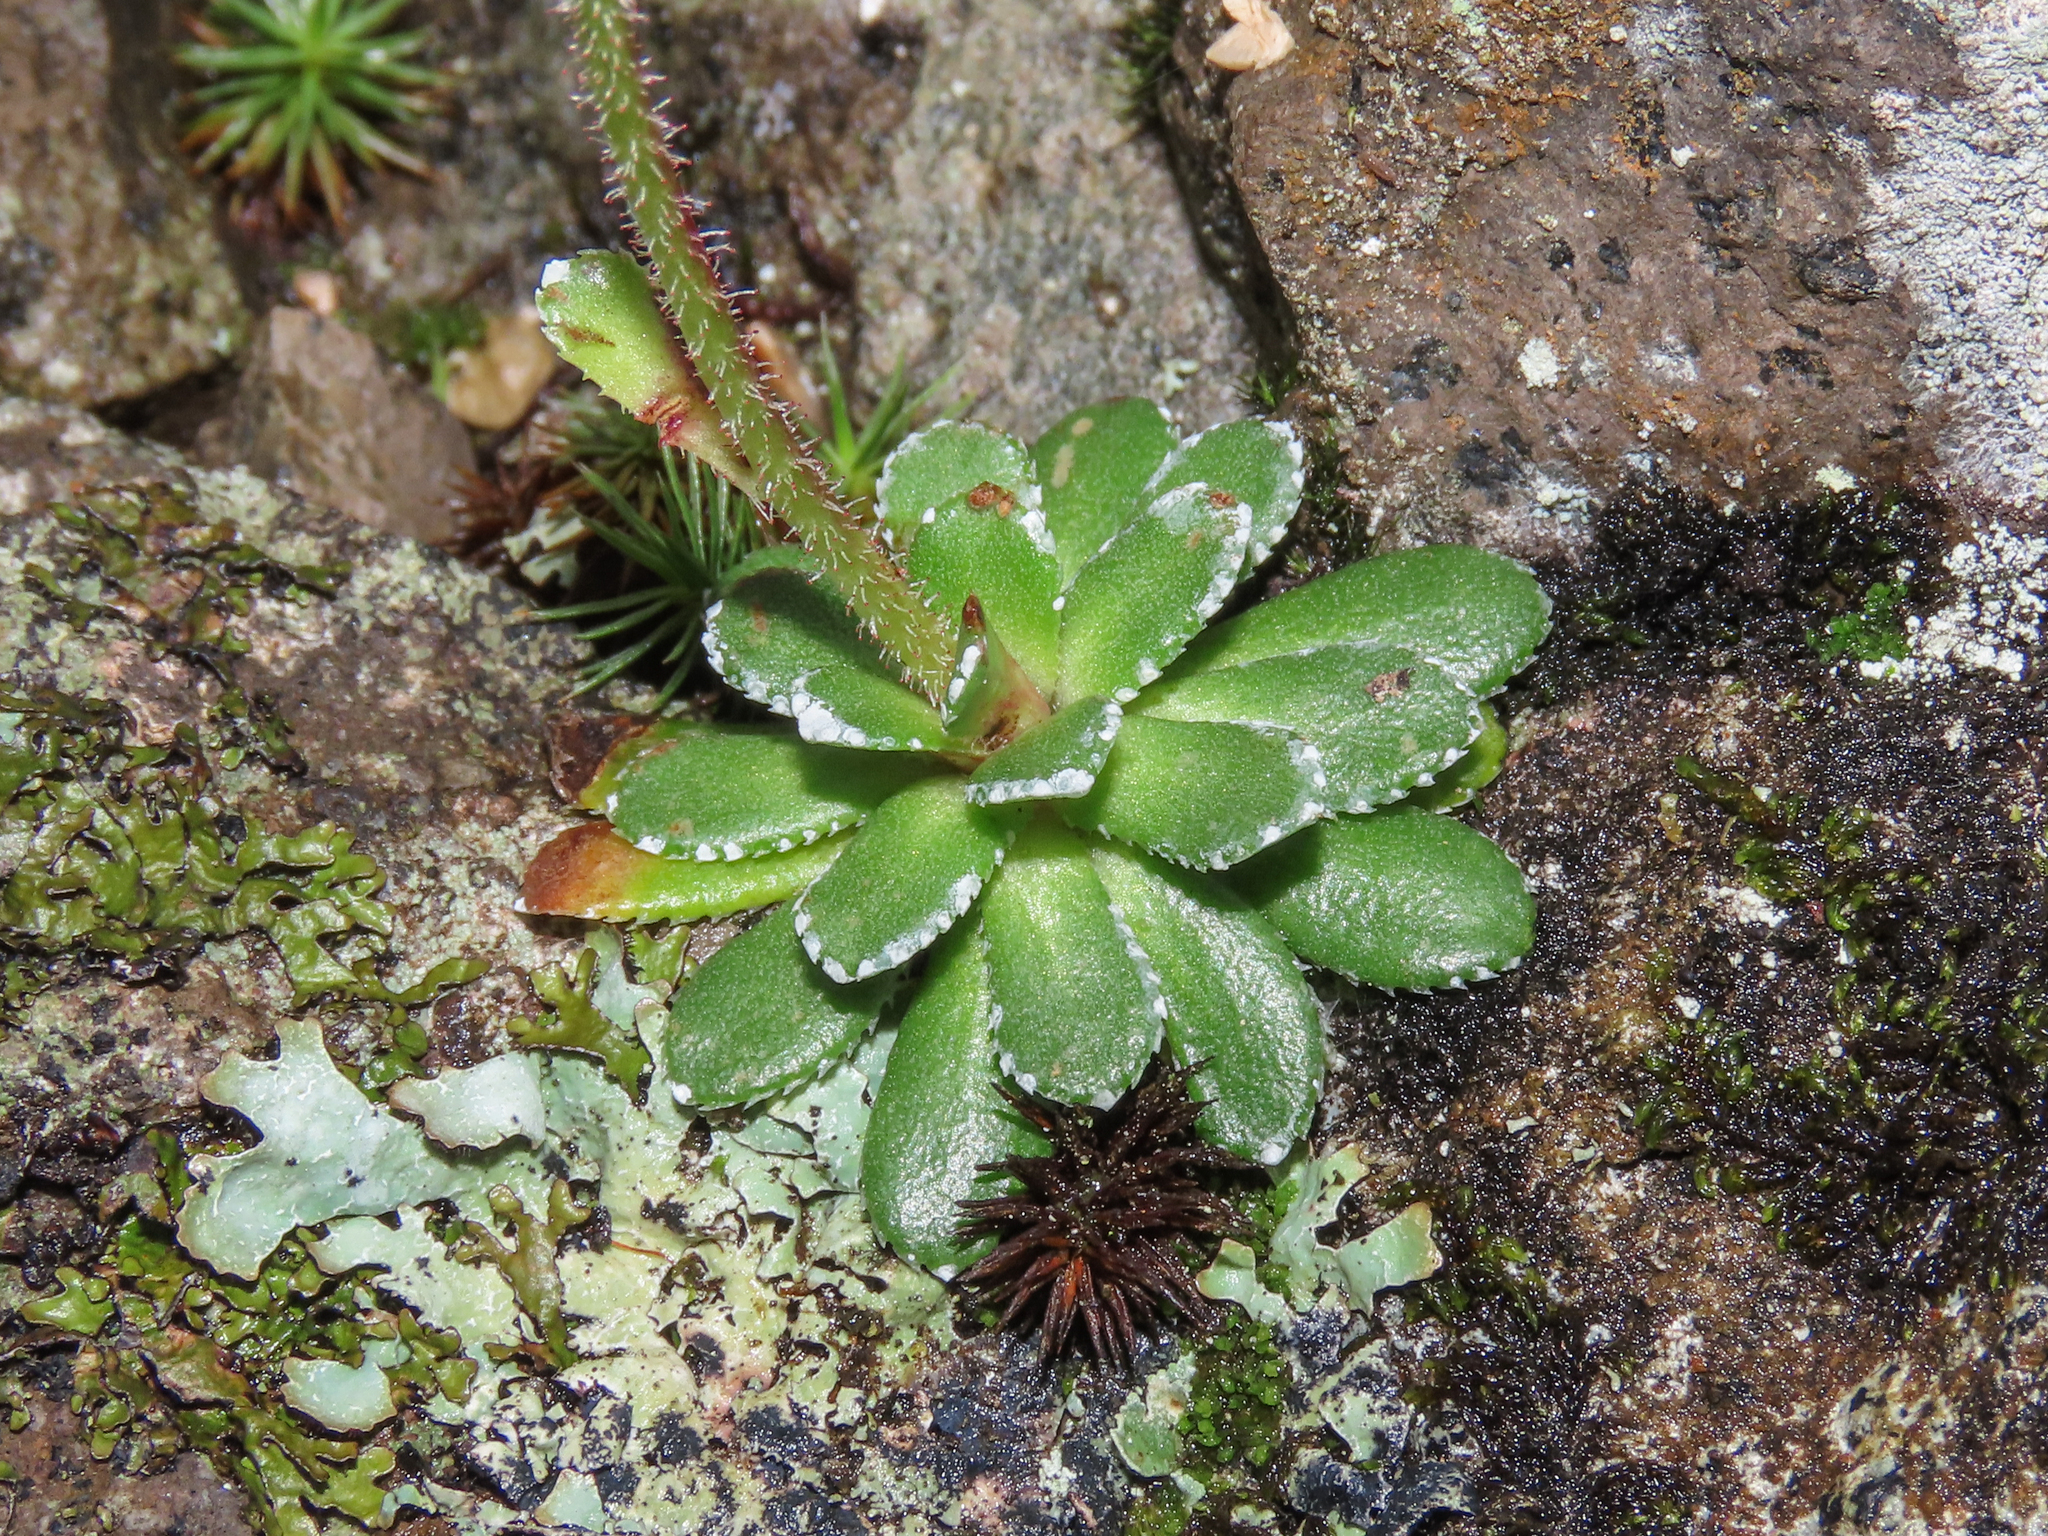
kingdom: Plantae
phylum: Tracheophyta
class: Magnoliopsida
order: Saxifragales
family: Saxifragaceae
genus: Saxifraga
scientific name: Saxifraga paniculata
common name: Livelong saxifrage
